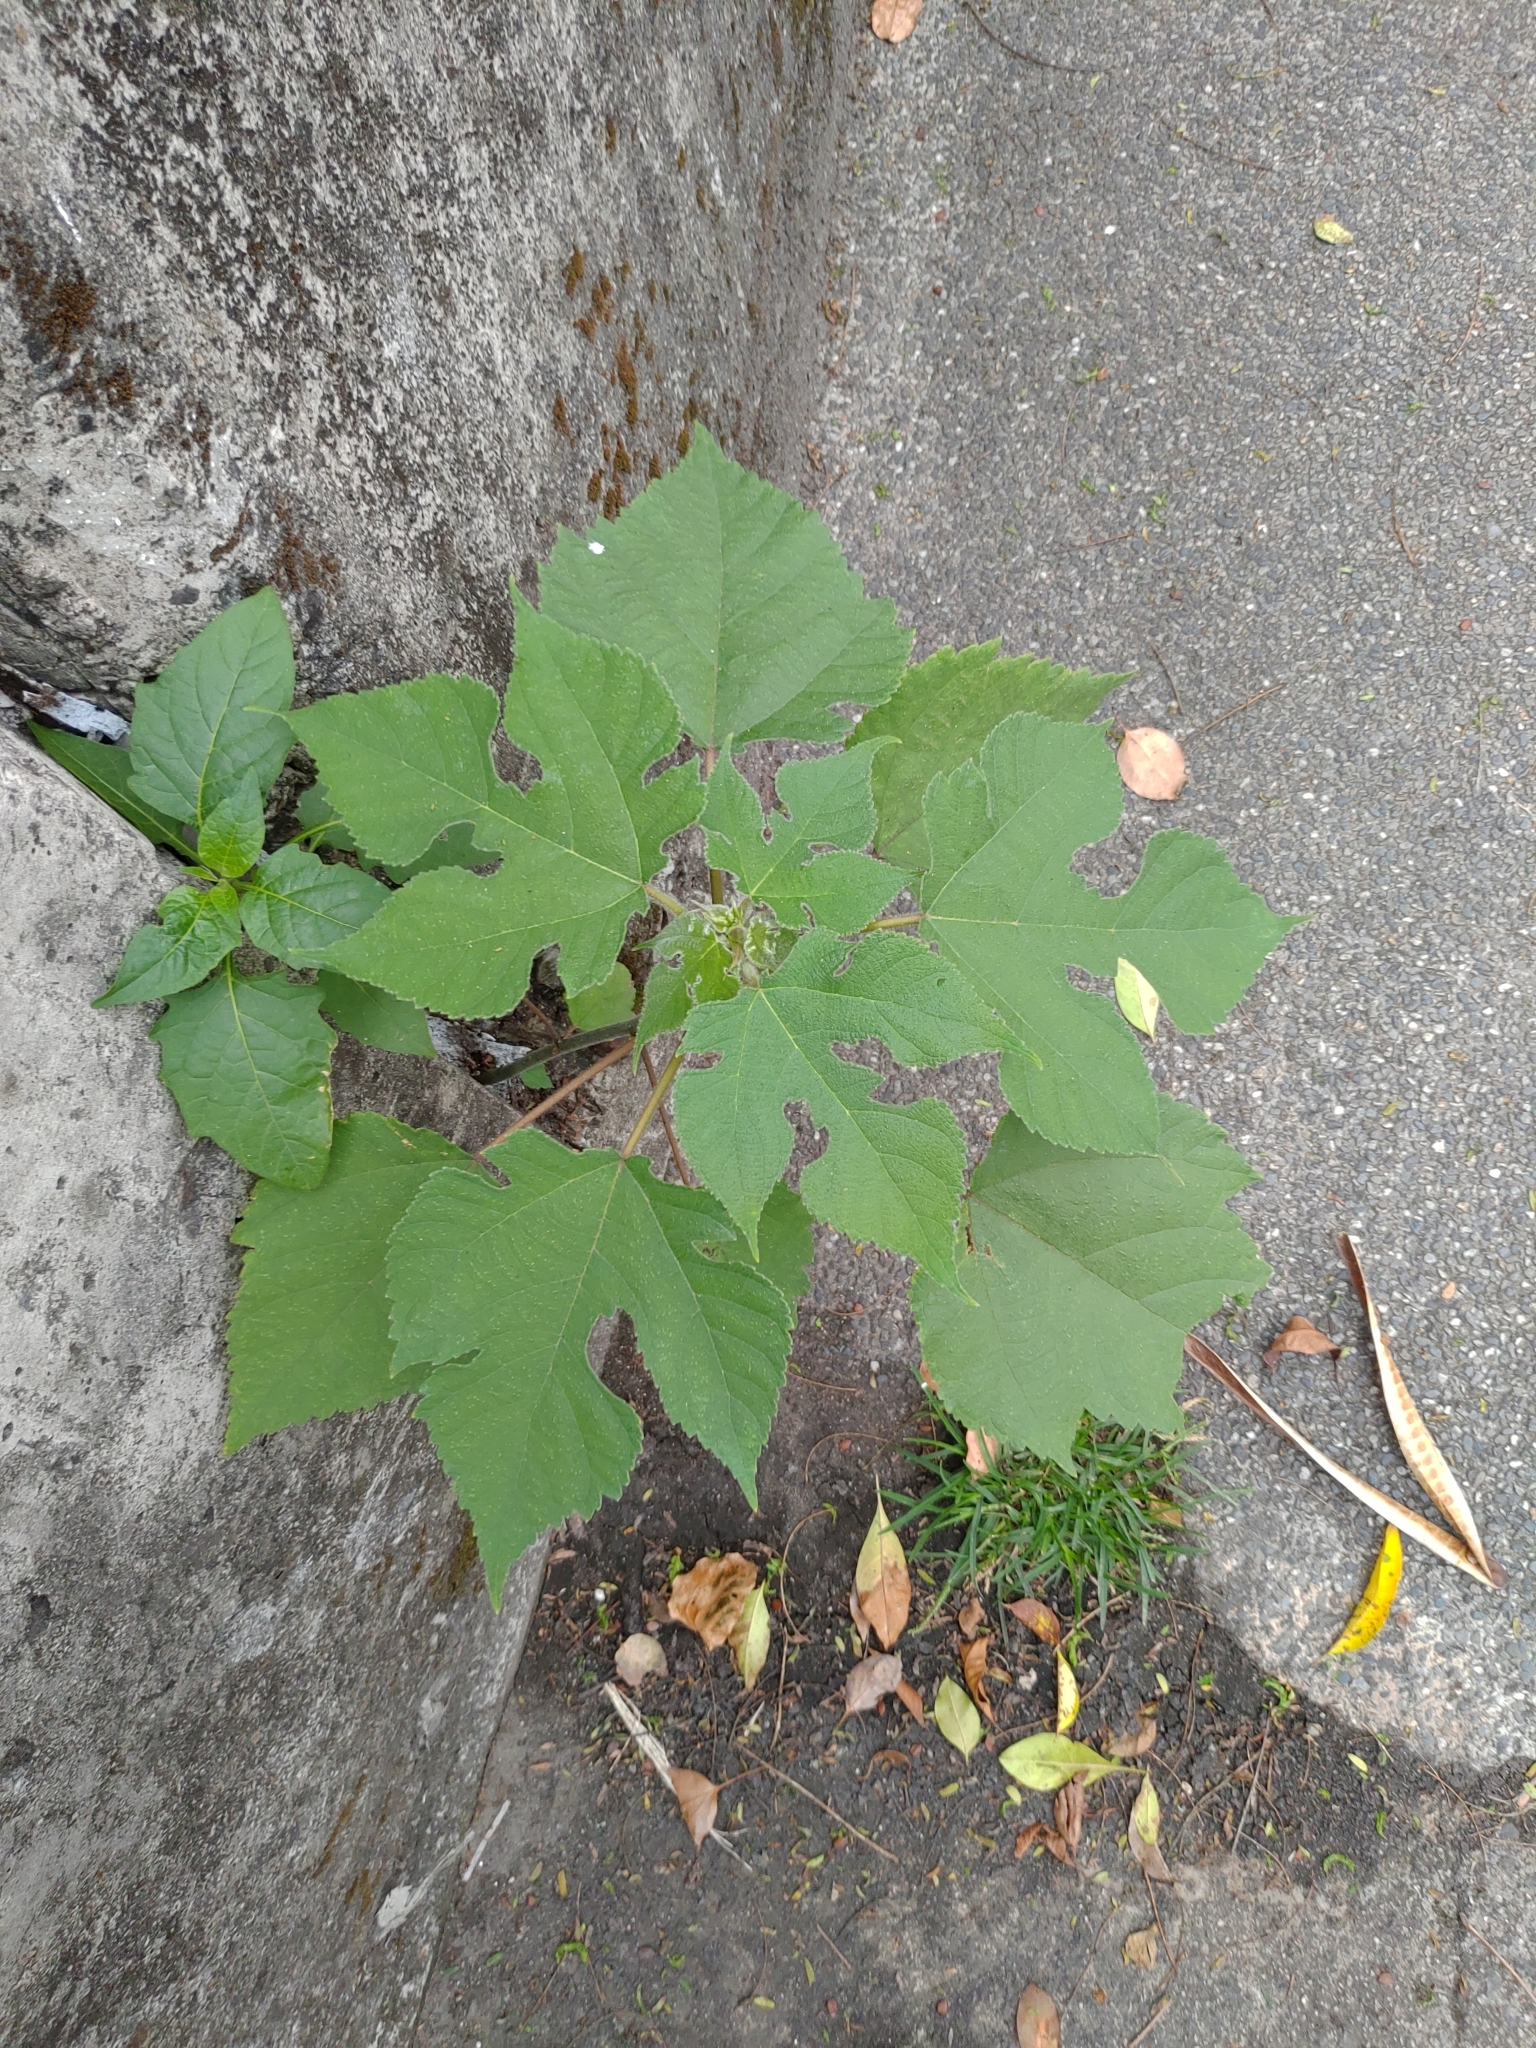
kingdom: Plantae
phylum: Tracheophyta
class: Magnoliopsida
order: Rosales
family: Moraceae
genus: Broussonetia
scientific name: Broussonetia papyrifera
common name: Paper mulberry
